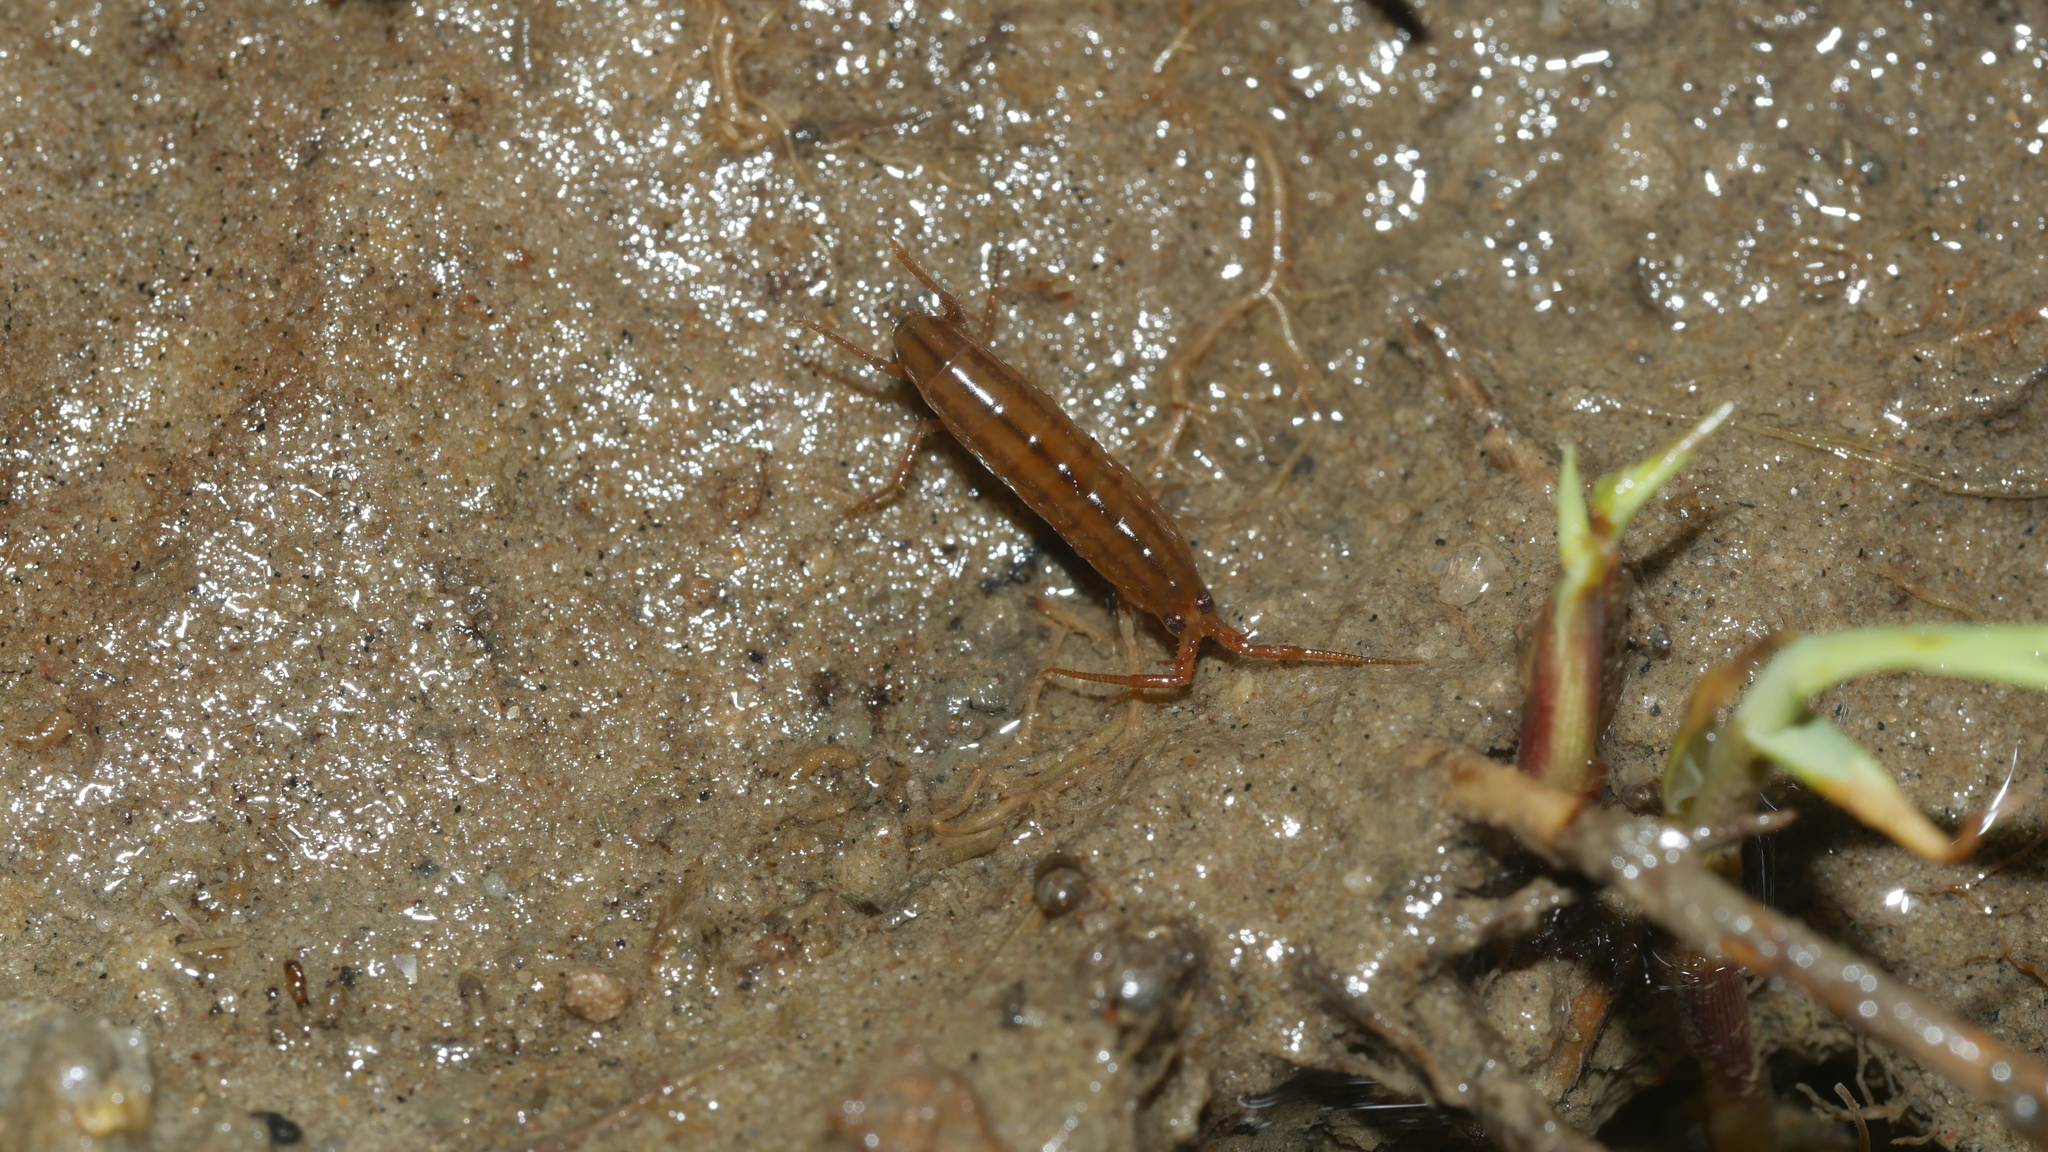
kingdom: Animalia
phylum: Arthropoda
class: Malacostraca
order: Amphipoda
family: Talitridae
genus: Speziorchestia
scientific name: Speziorchestia grillus
